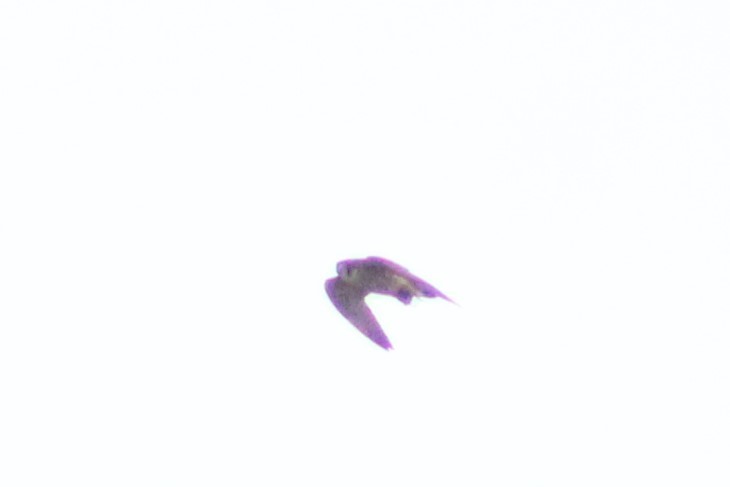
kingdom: Animalia
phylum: Chordata
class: Aves
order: Falconiformes
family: Falconidae
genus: Falco
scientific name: Falco peregrinus
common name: Peregrine falcon
